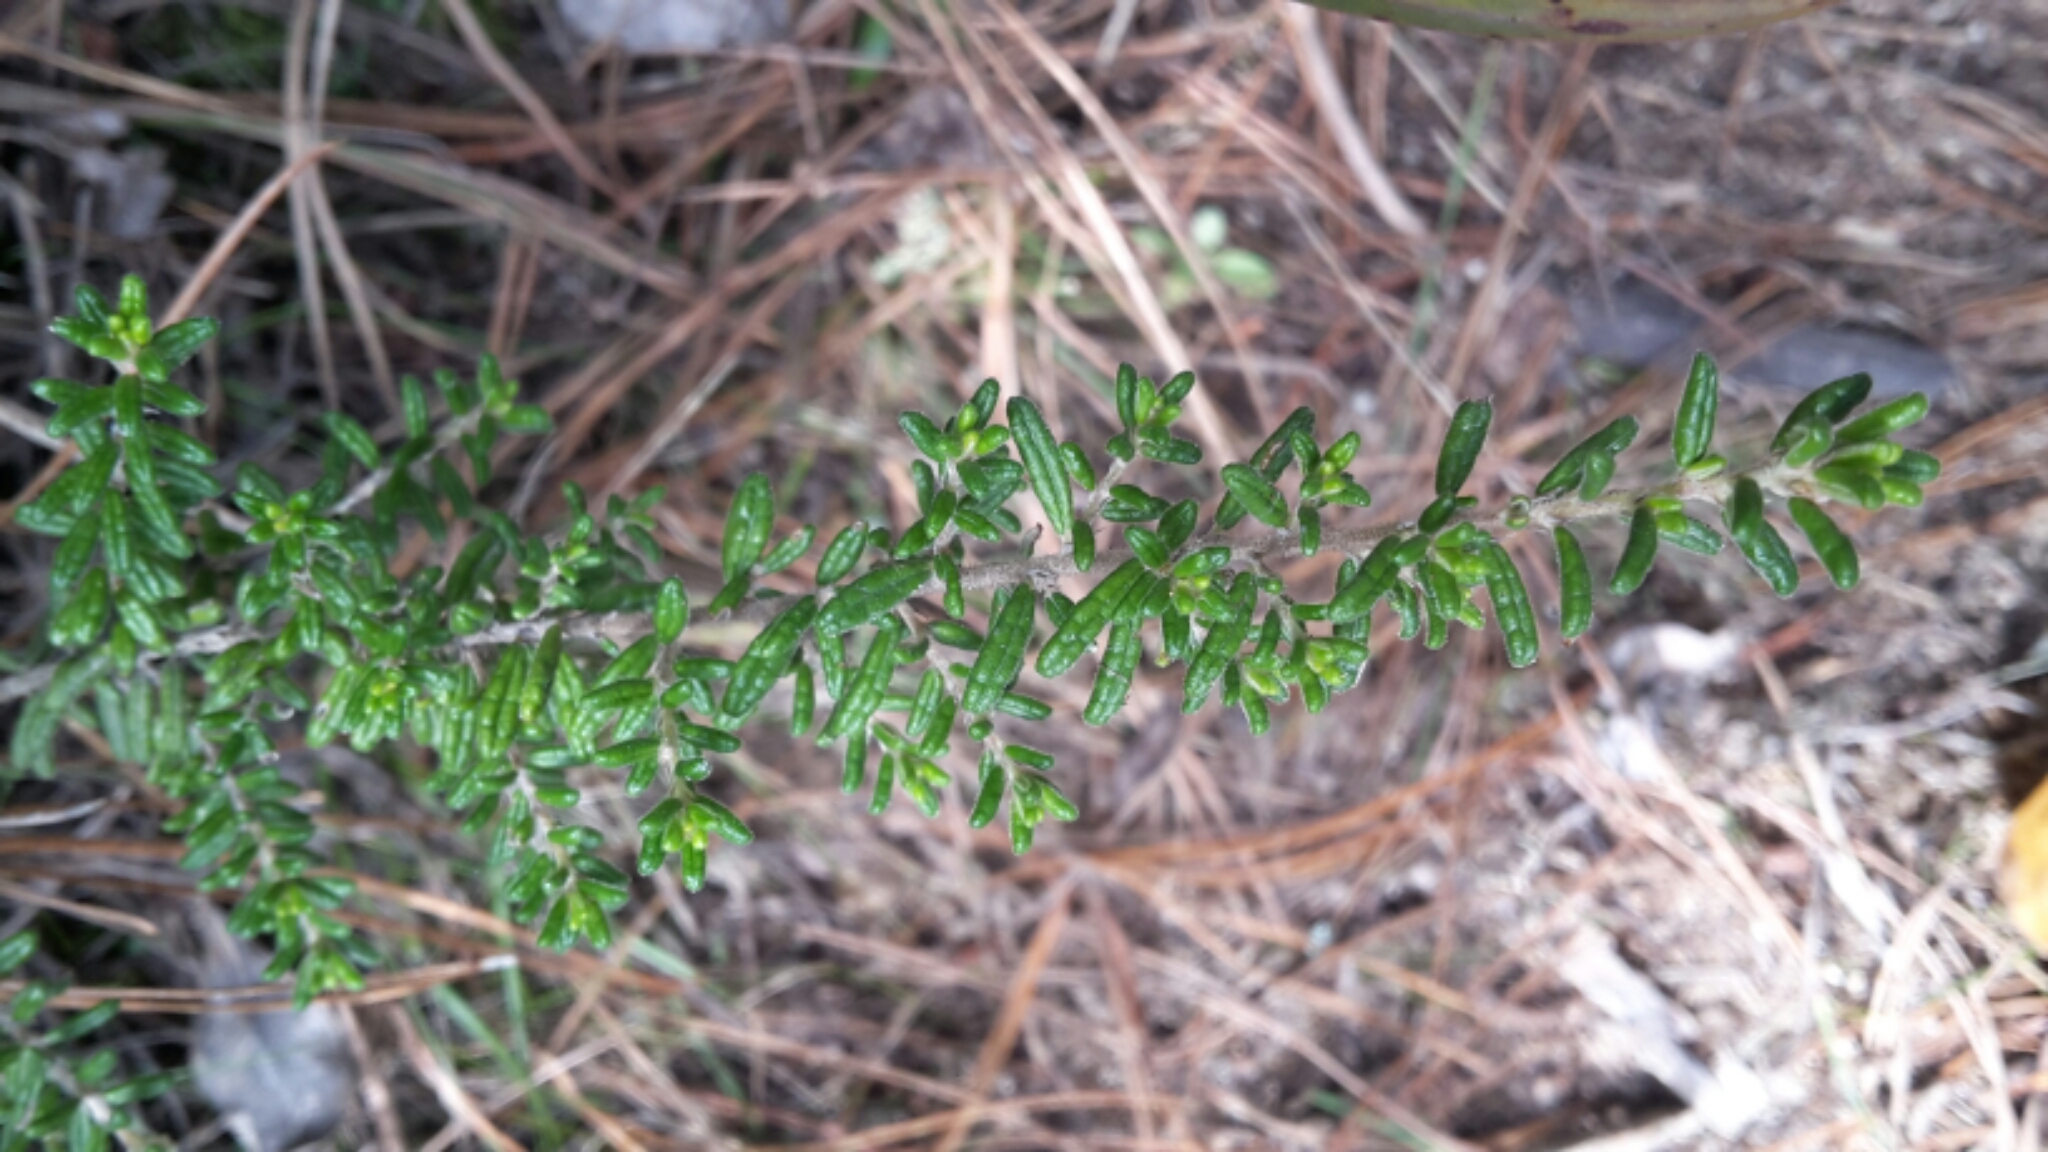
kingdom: Plantae
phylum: Tracheophyta
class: Magnoliopsida
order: Rosales
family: Rhamnaceae
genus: Pomaderris
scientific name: Pomaderris amoena
